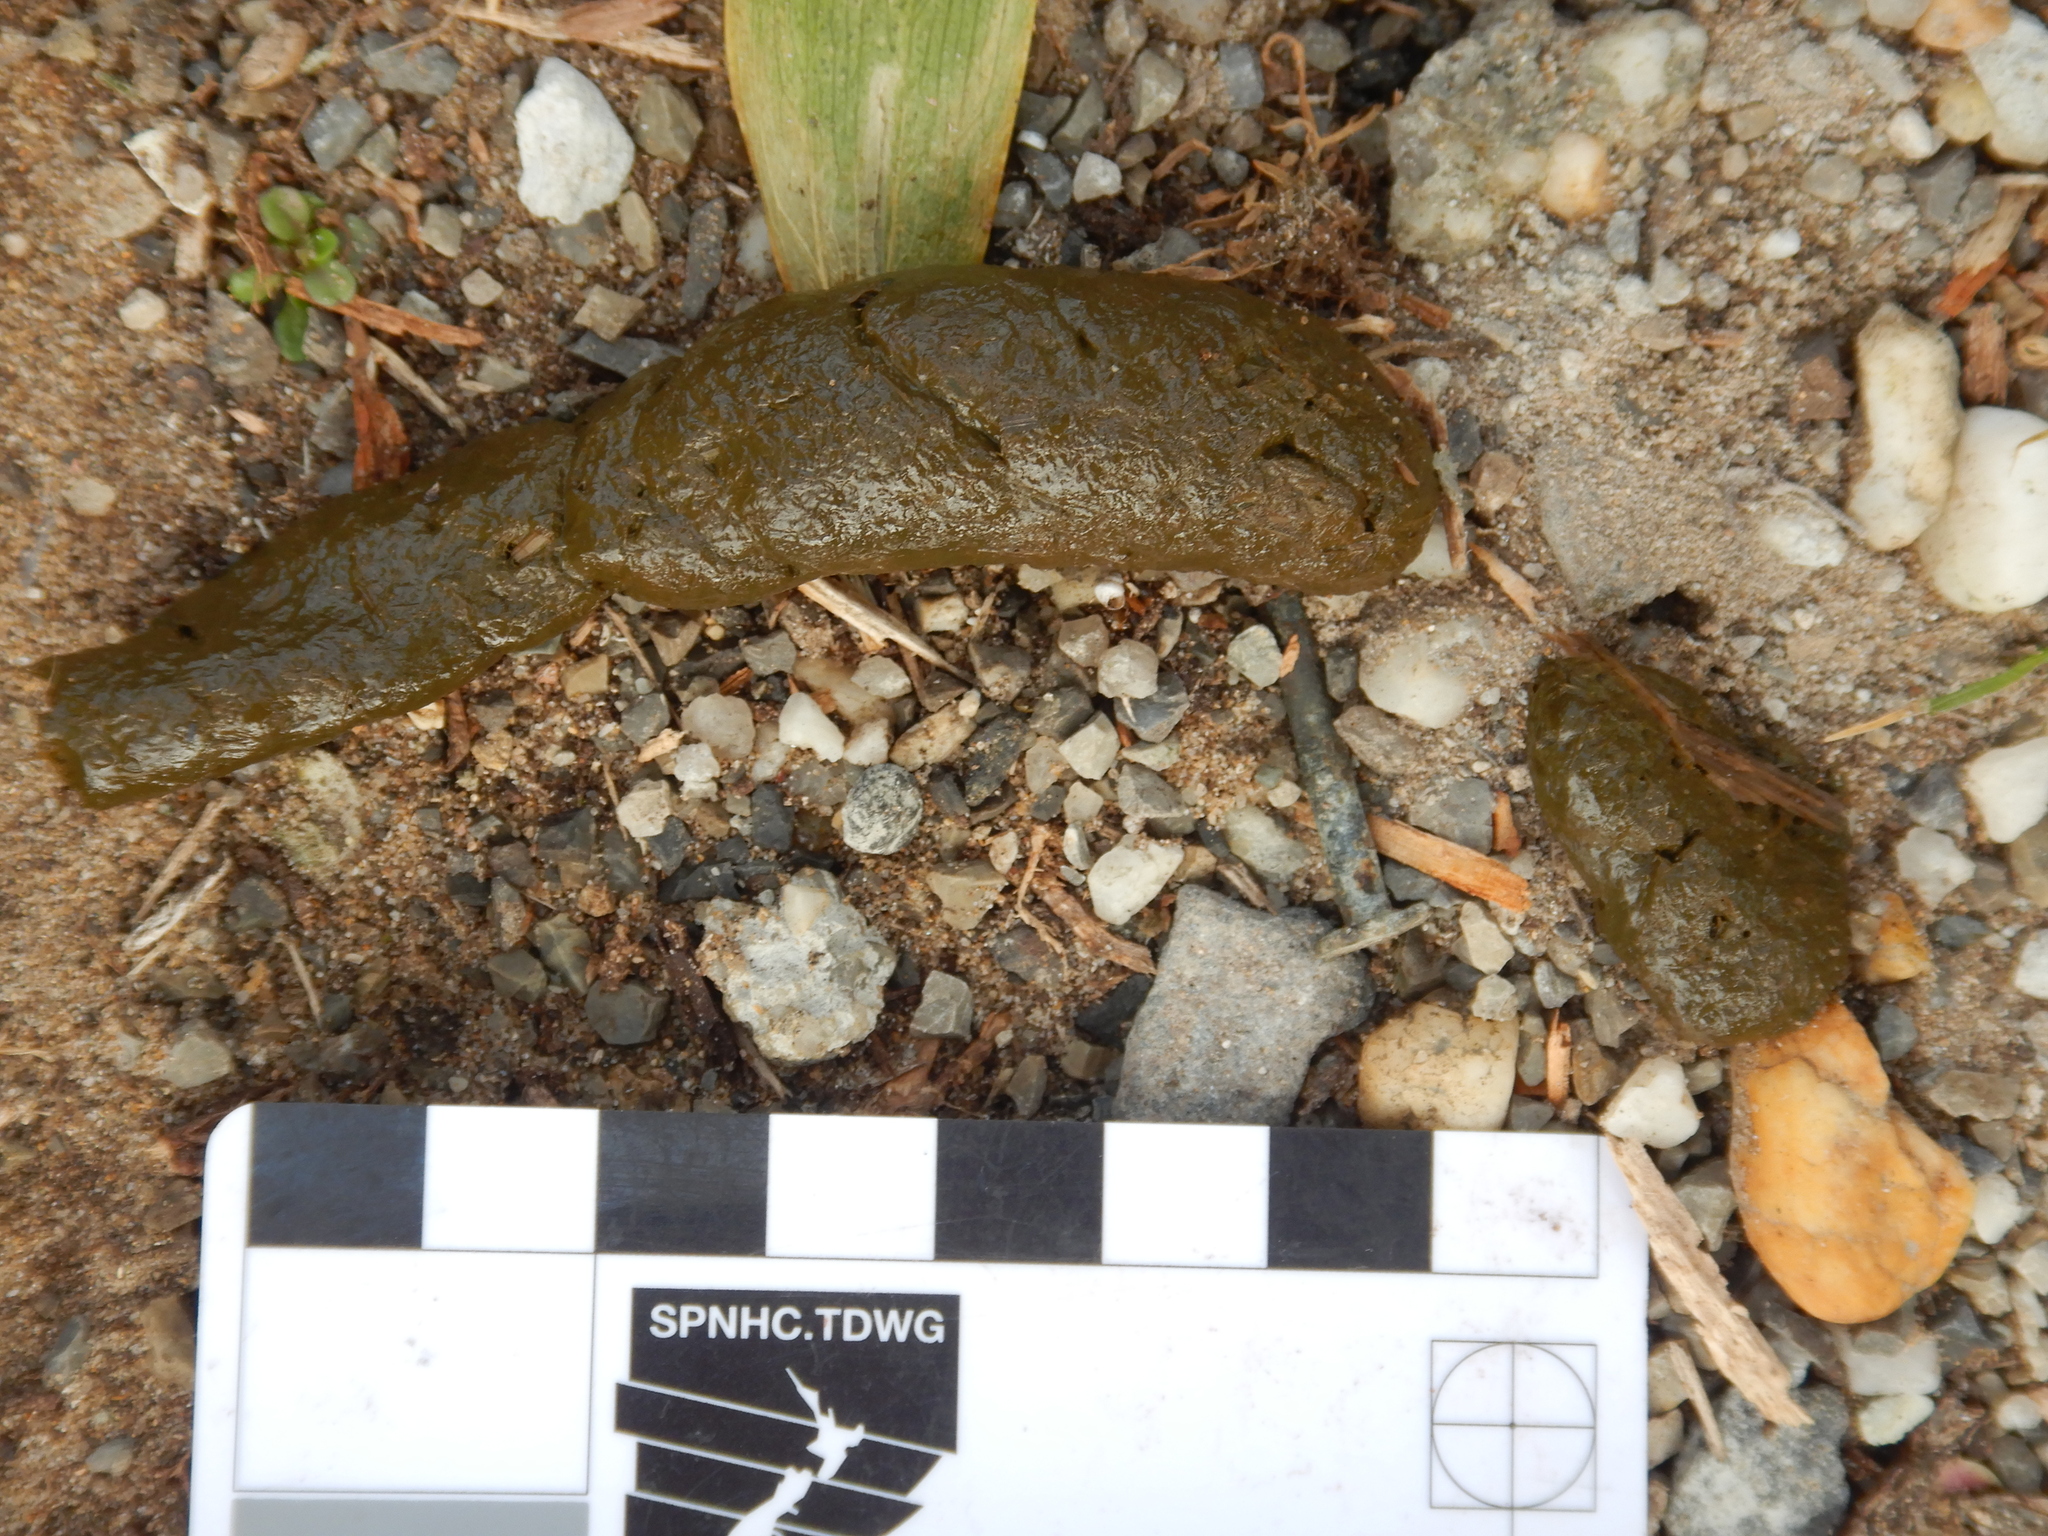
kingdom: Animalia
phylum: Chordata
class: Mammalia
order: Dasyuromorphia
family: Dasyuridae
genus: Sarcophilus
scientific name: Sarcophilus harrisii
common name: Tasmanian devil
